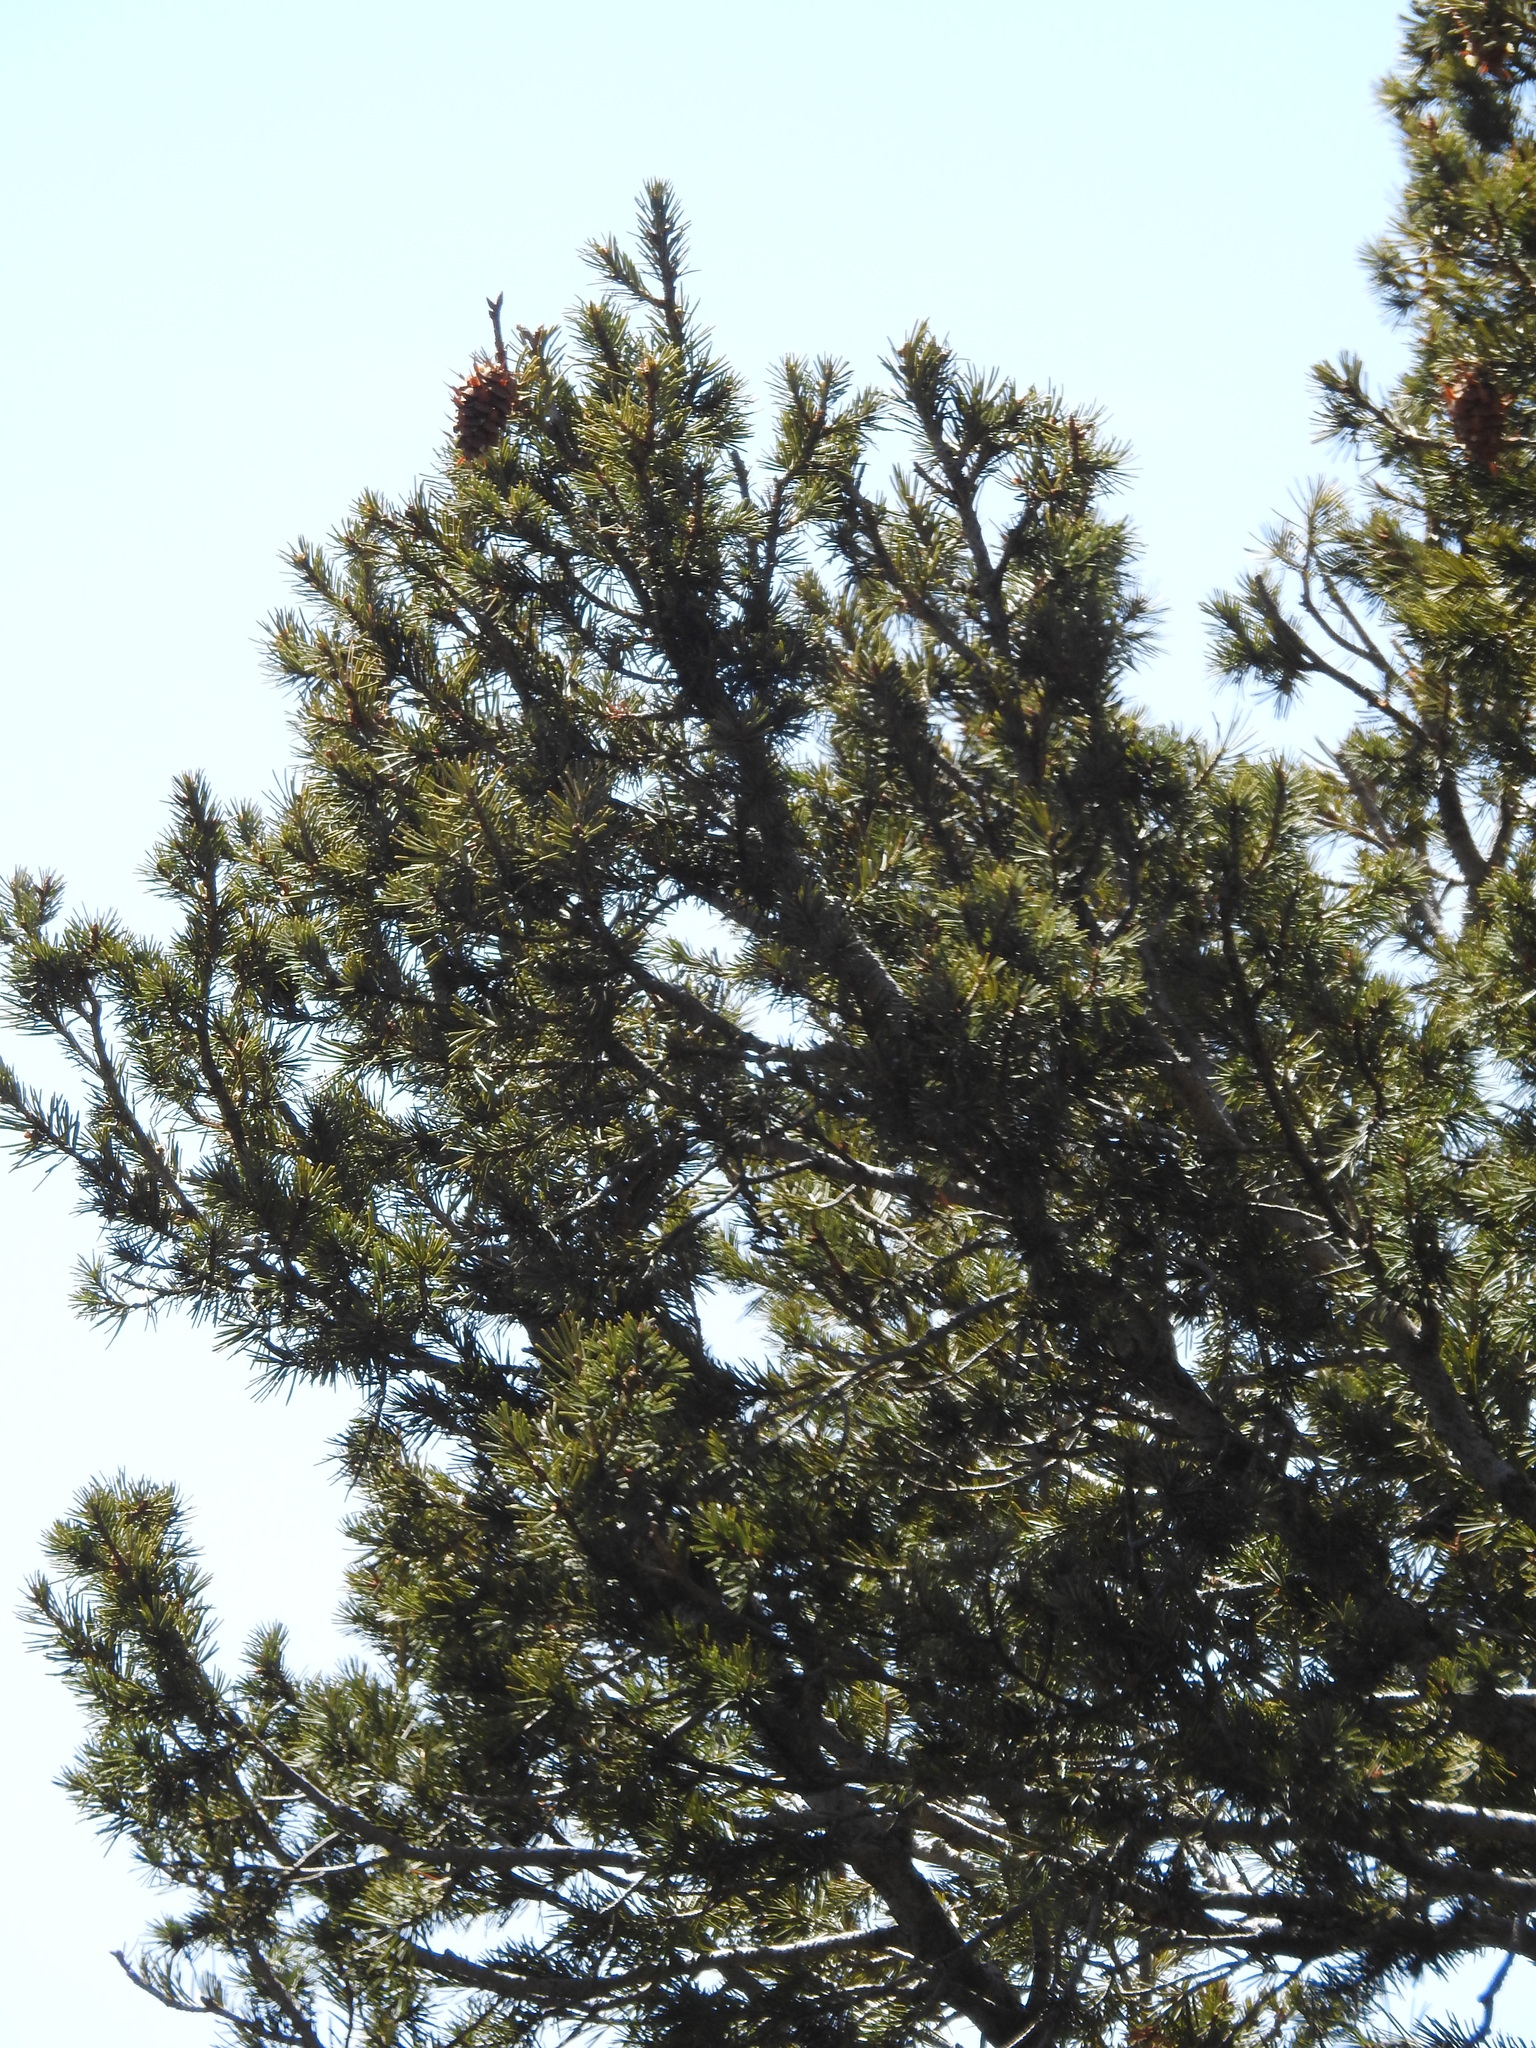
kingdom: Plantae
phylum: Tracheophyta
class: Pinopsida
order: Pinales
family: Pinaceae
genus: Pseudotsuga
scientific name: Pseudotsuga menziesii
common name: Douglas fir
